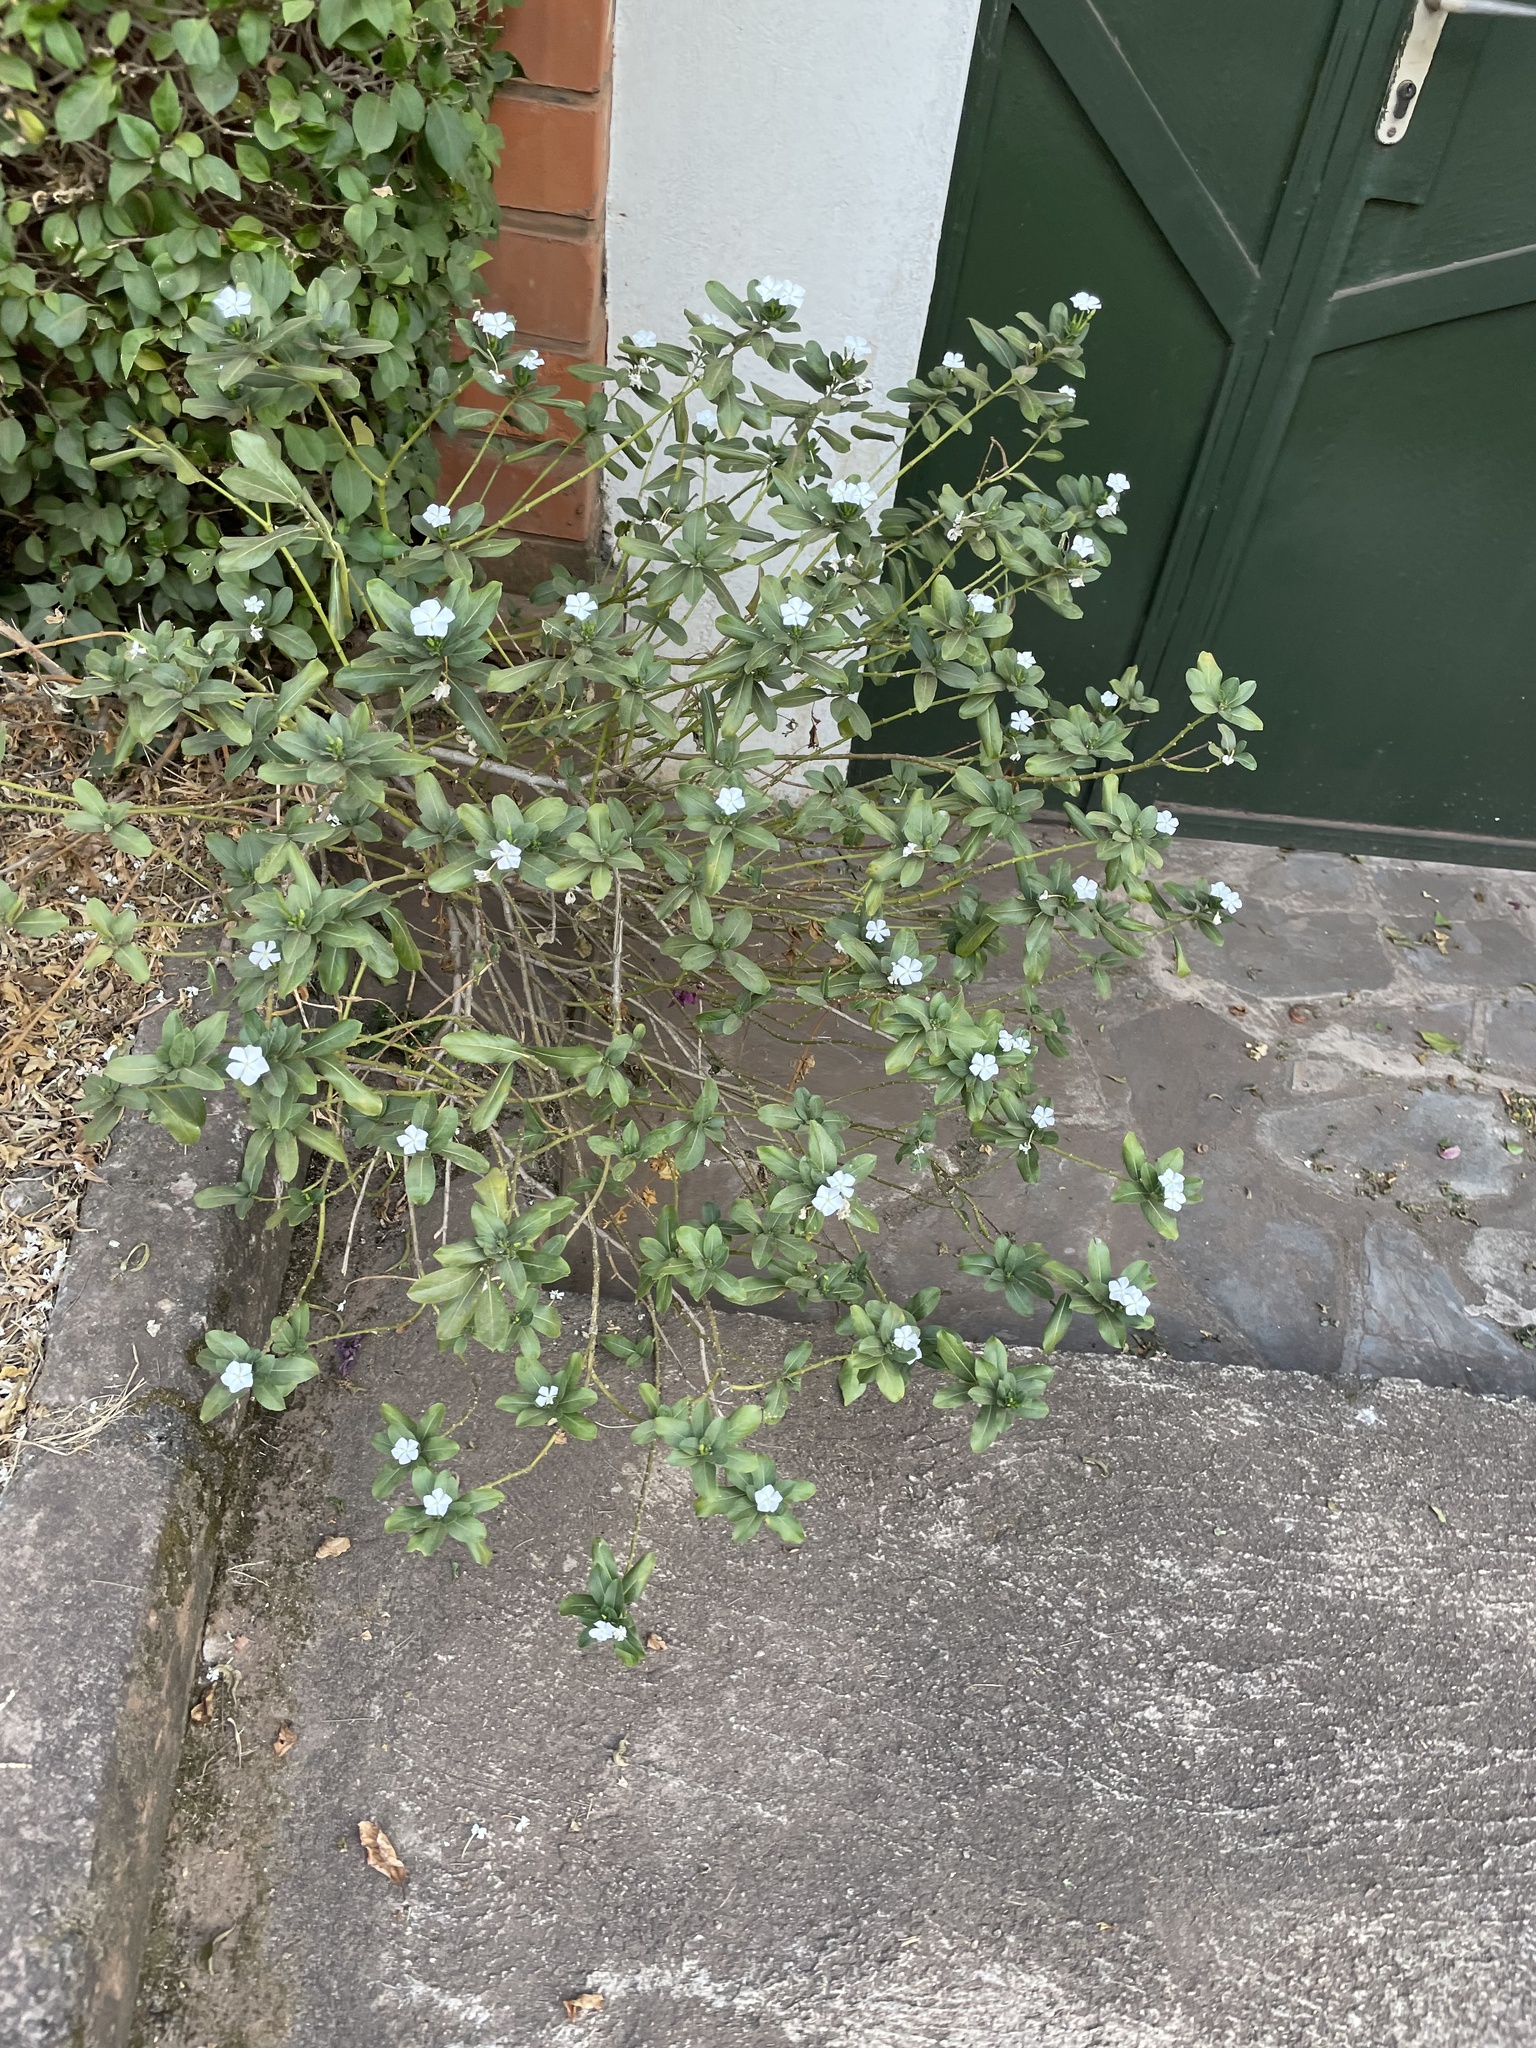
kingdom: Plantae
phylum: Tracheophyta
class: Magnoliopsida
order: Gentianales
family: Apocynaceae
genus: Catharanthus
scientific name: Catharanthus roseus
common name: Madagascar periwinkle
